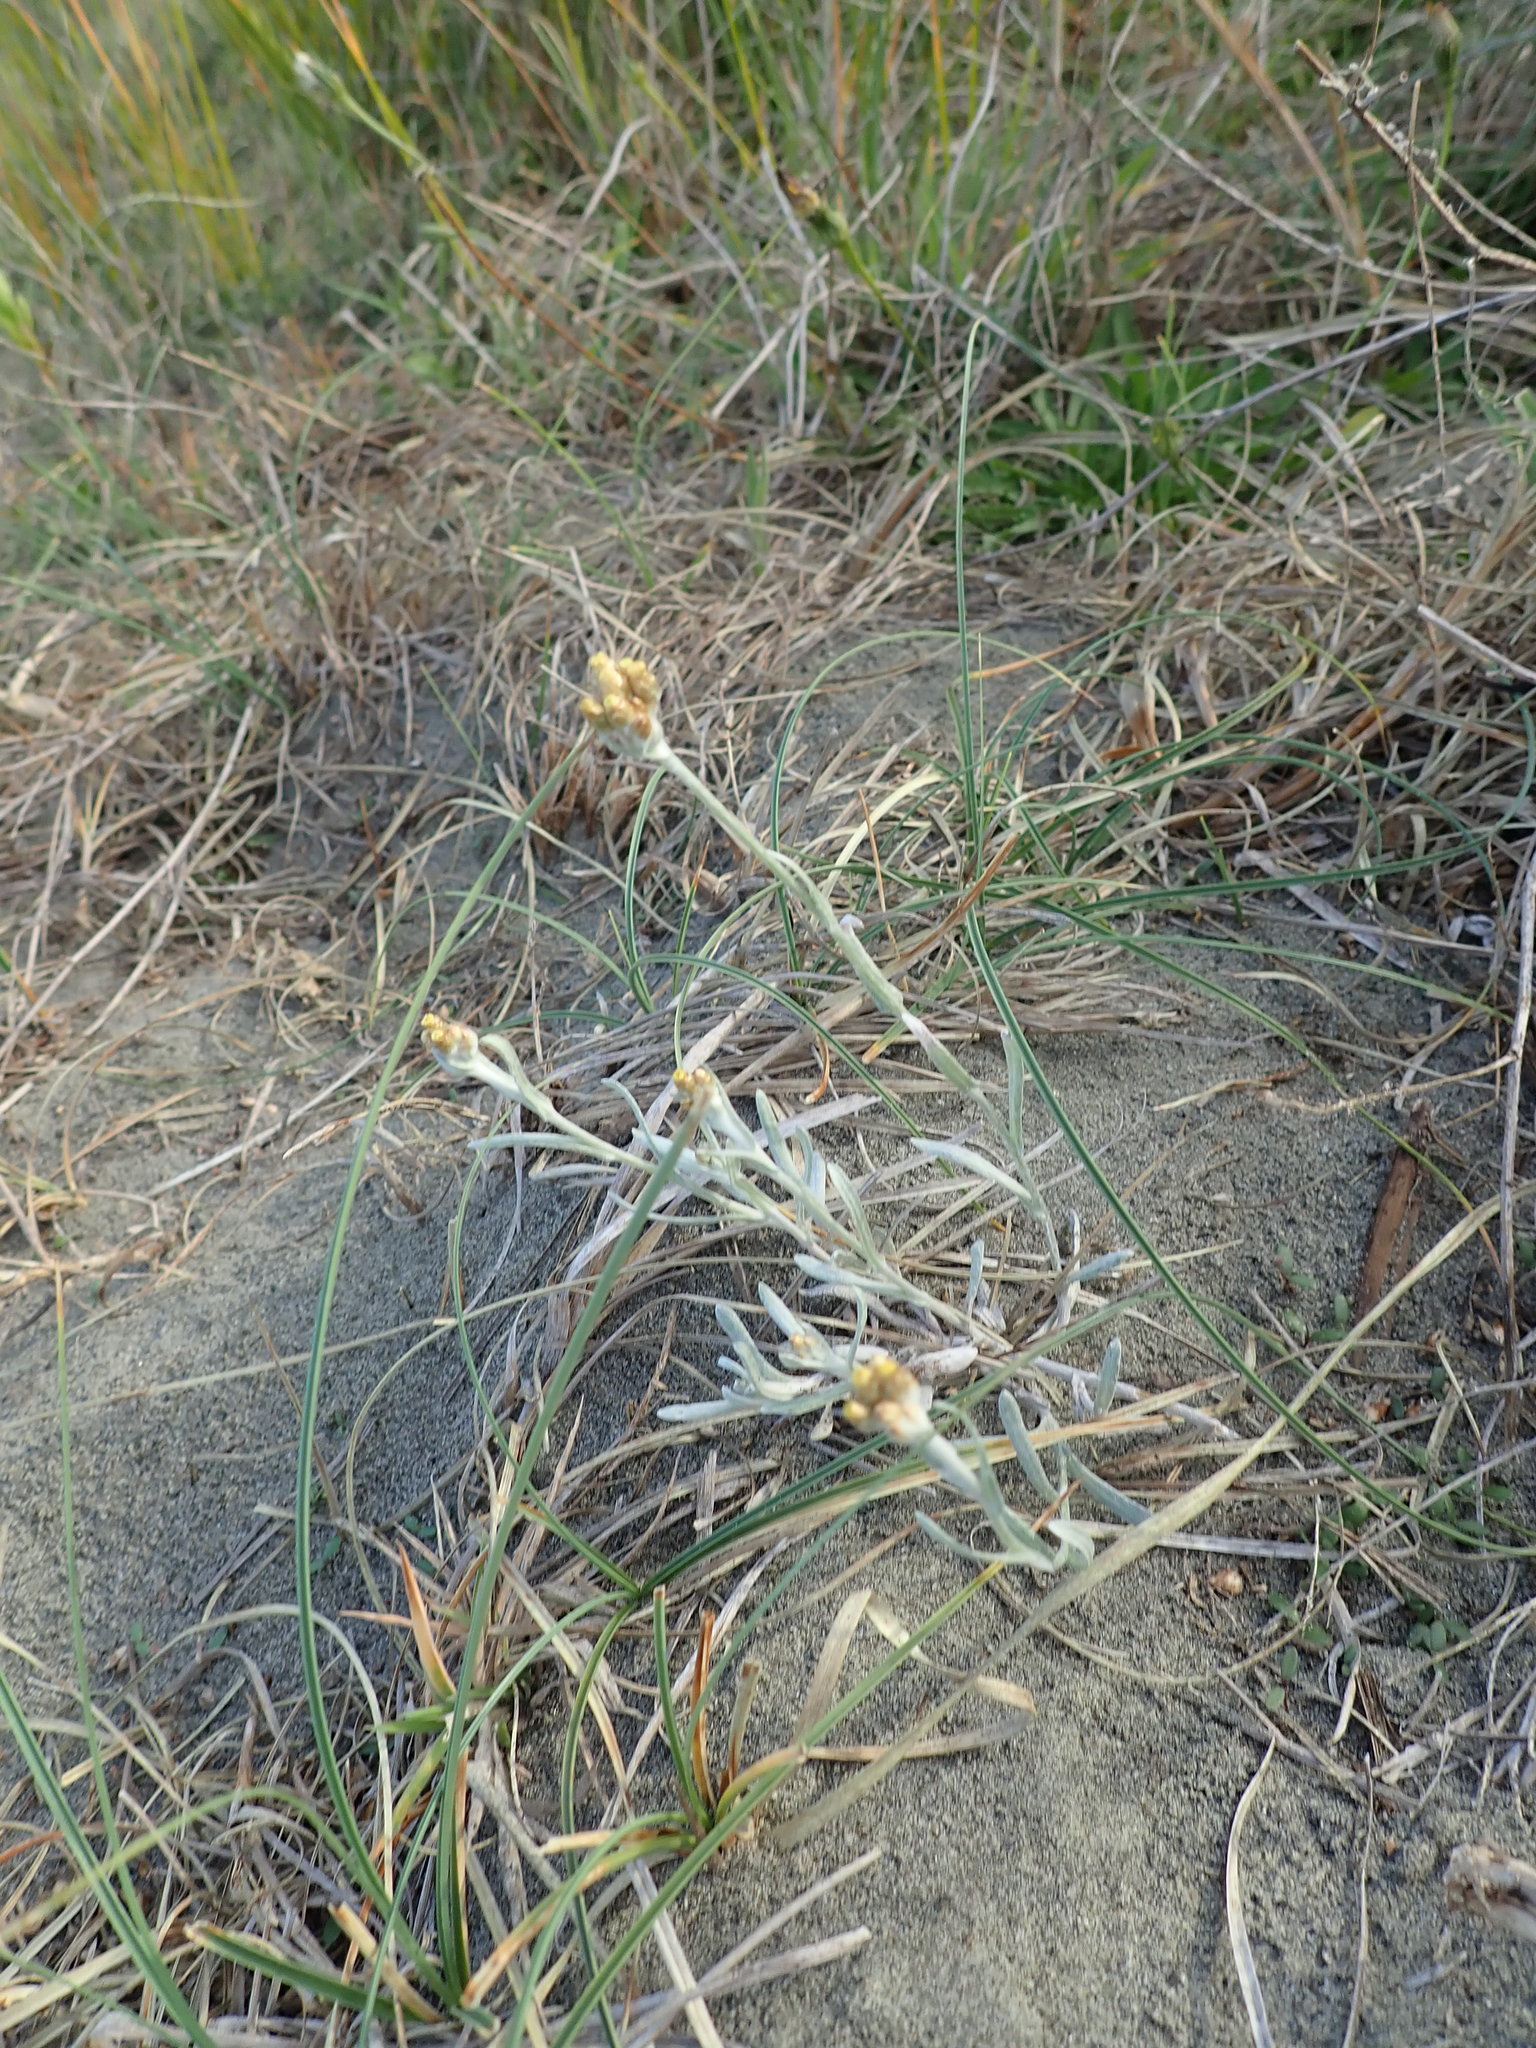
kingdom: Plantae
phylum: Tracheophyta
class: Magnoliopsida
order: Asterales
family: Asteraceae
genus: Helichrysum
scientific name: Helichrysum luteoalbum
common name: Daisy
